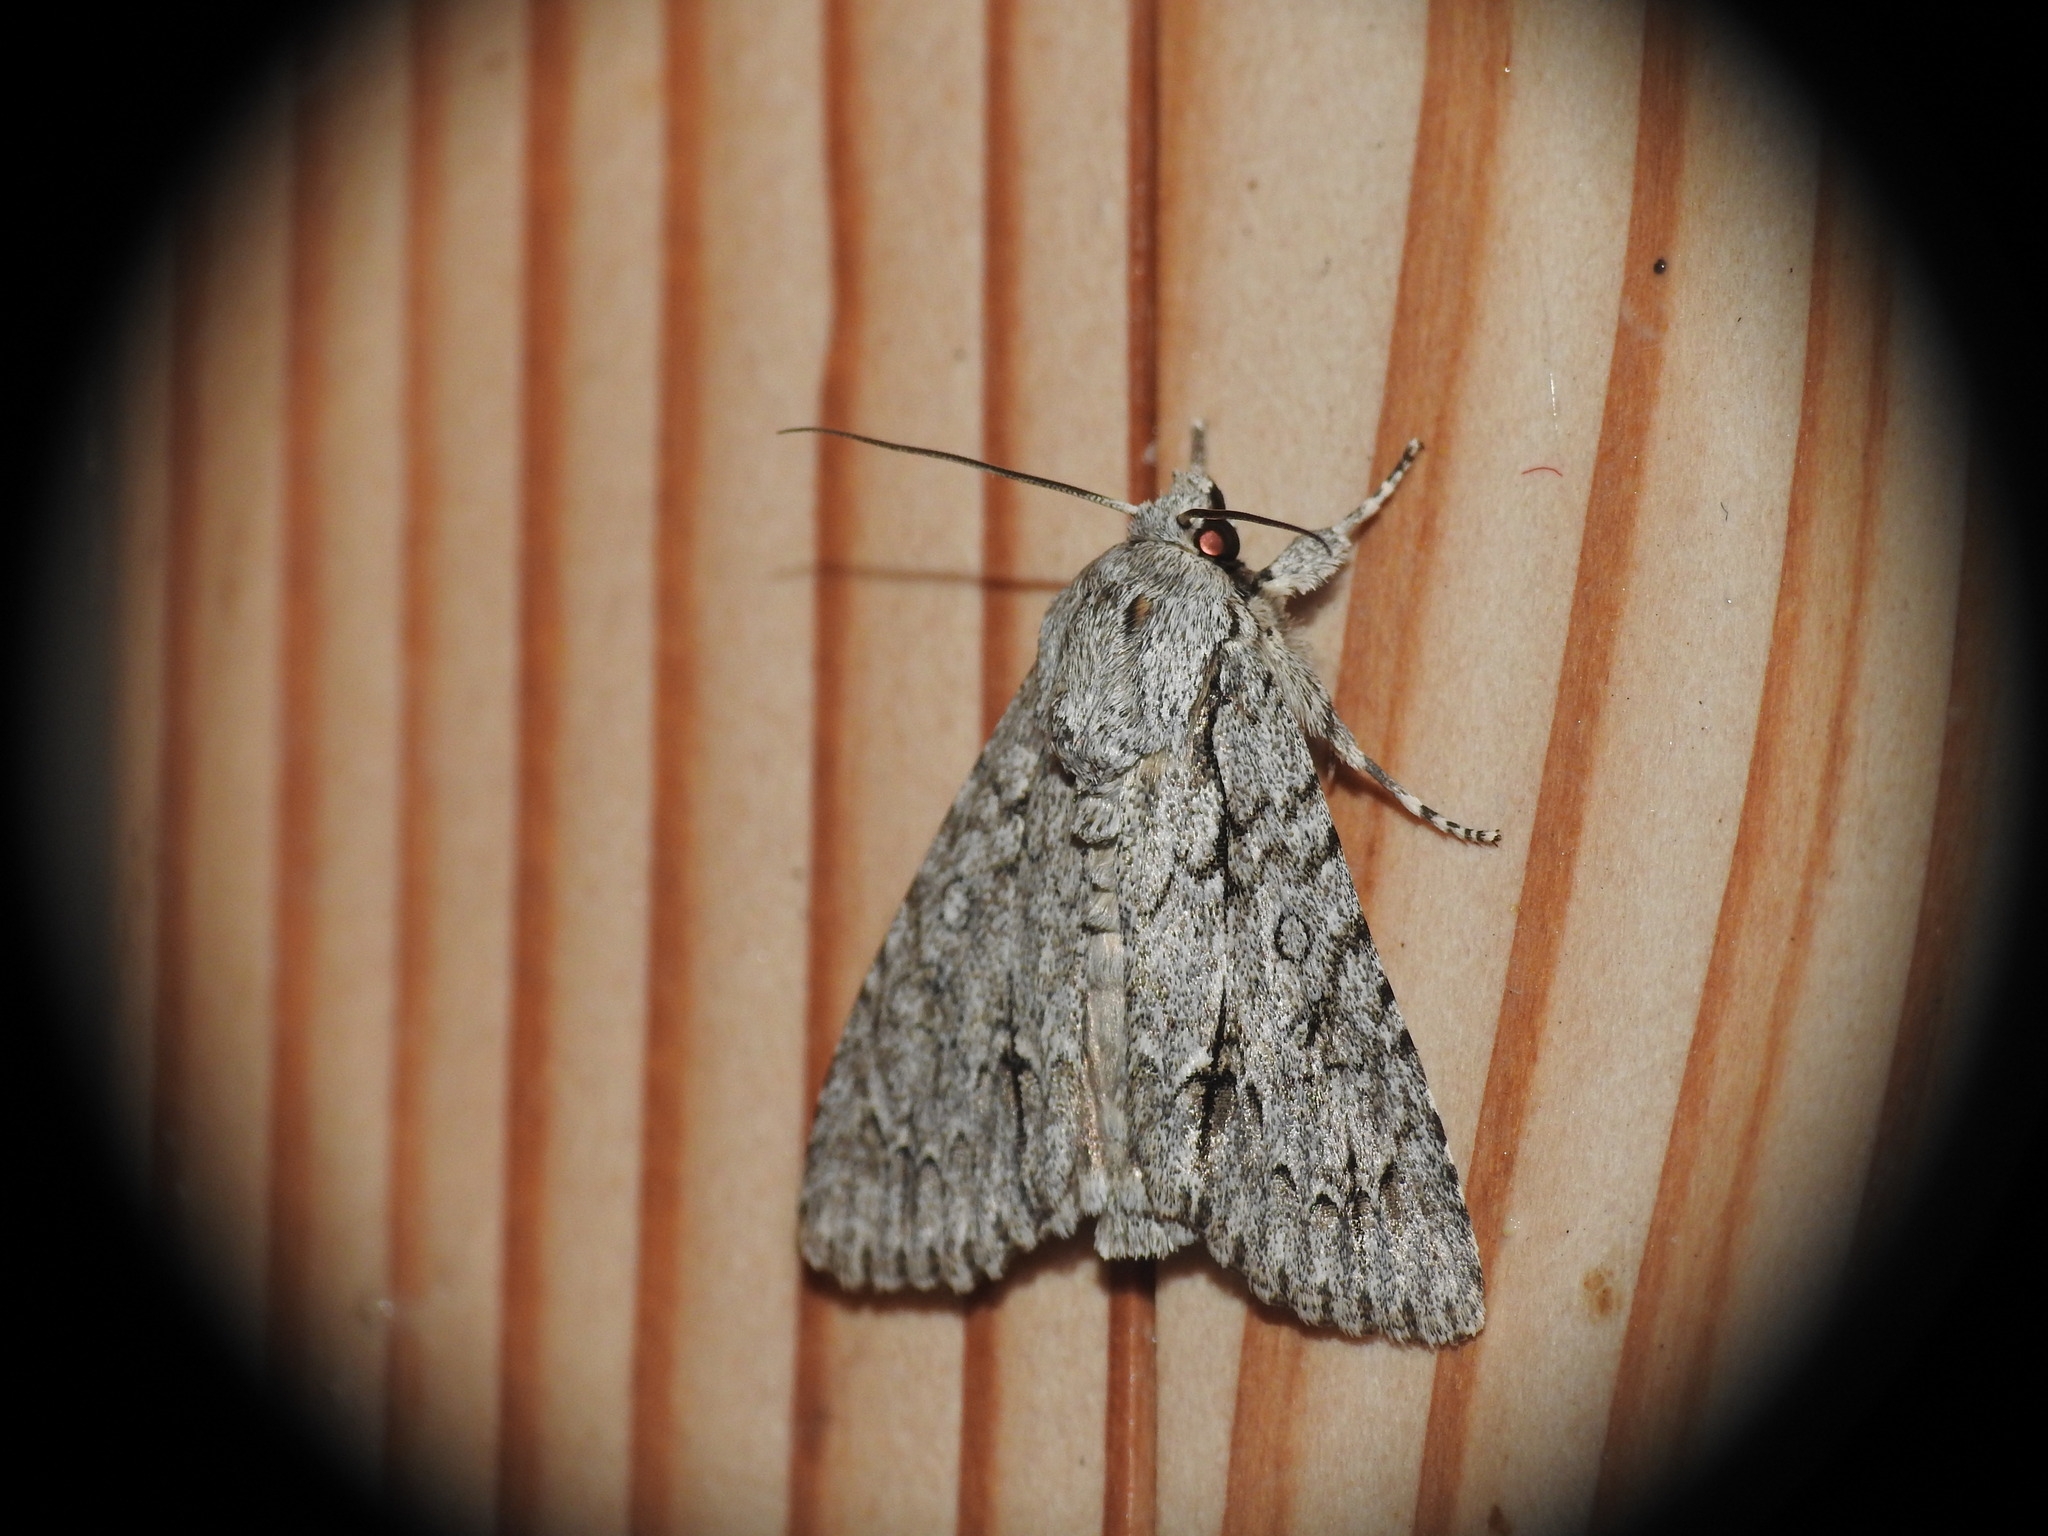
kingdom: Animalia
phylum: Arthropoda
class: Insecta
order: Lepidoptera
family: Noctuidae
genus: Acronicta
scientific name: Acronicta aceris
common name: Sycamore
